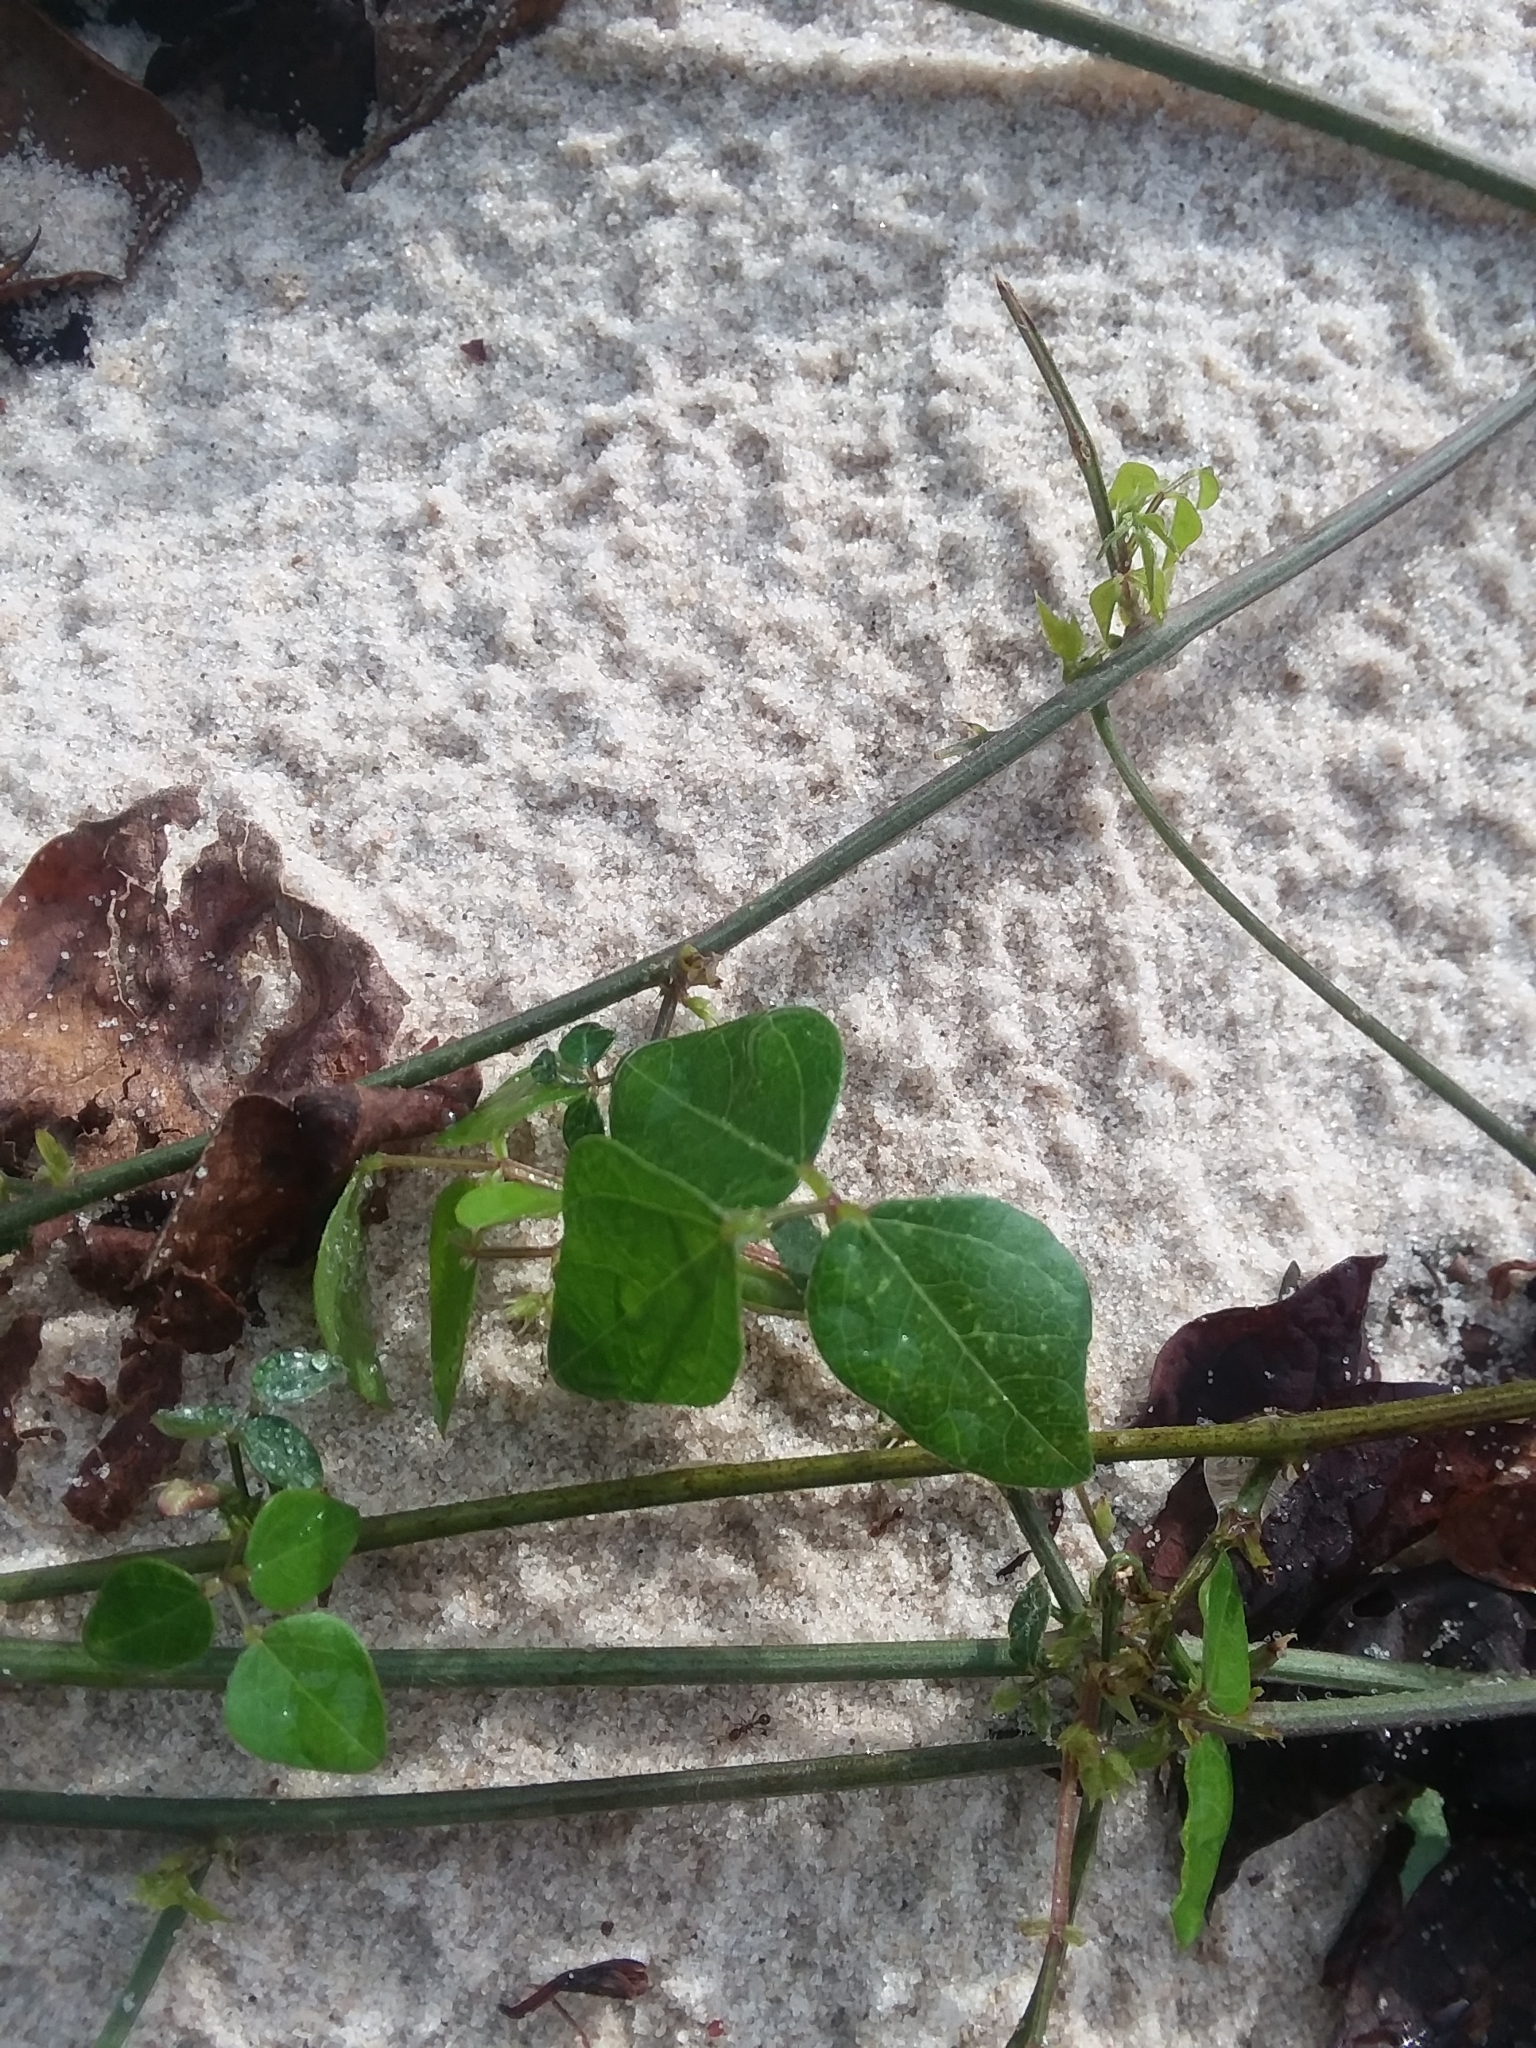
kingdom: Plantae
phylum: Tracheophyta
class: Magnoliopsida
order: Fabales
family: Fabaceae
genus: Strophostyles
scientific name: Strophostyles helvola
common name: Trailing wild bean
